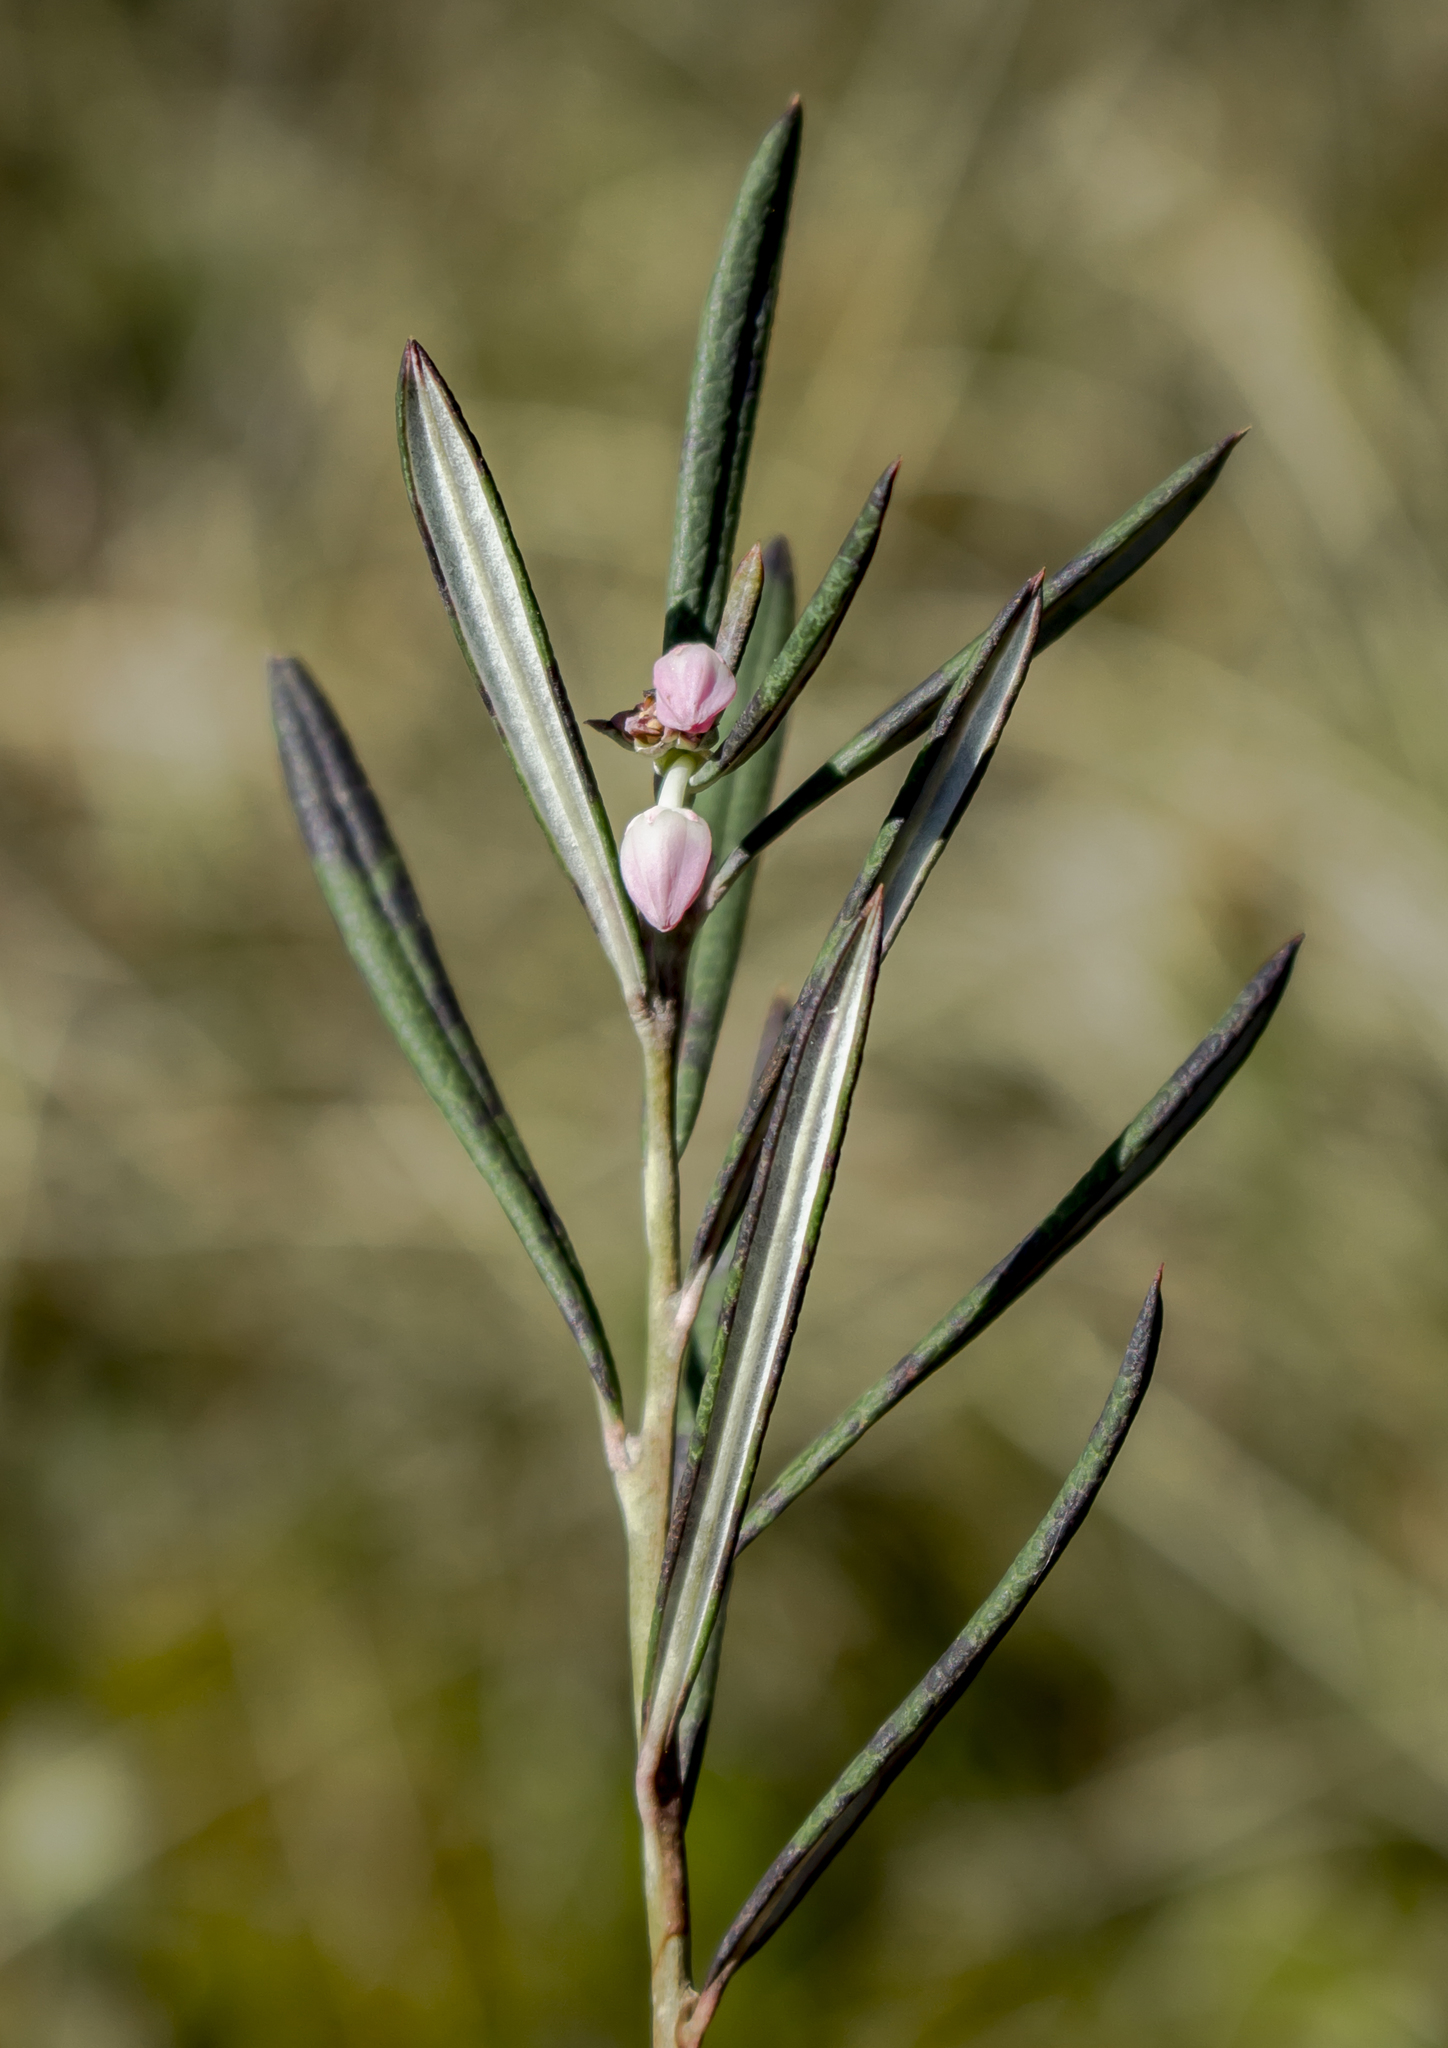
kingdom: Plantae
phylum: Tracheophyta
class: Magnoliopsida
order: Ericales
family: Ericaceae
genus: Andromeda
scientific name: Andromeda polifolia
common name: Bog-rosemary
